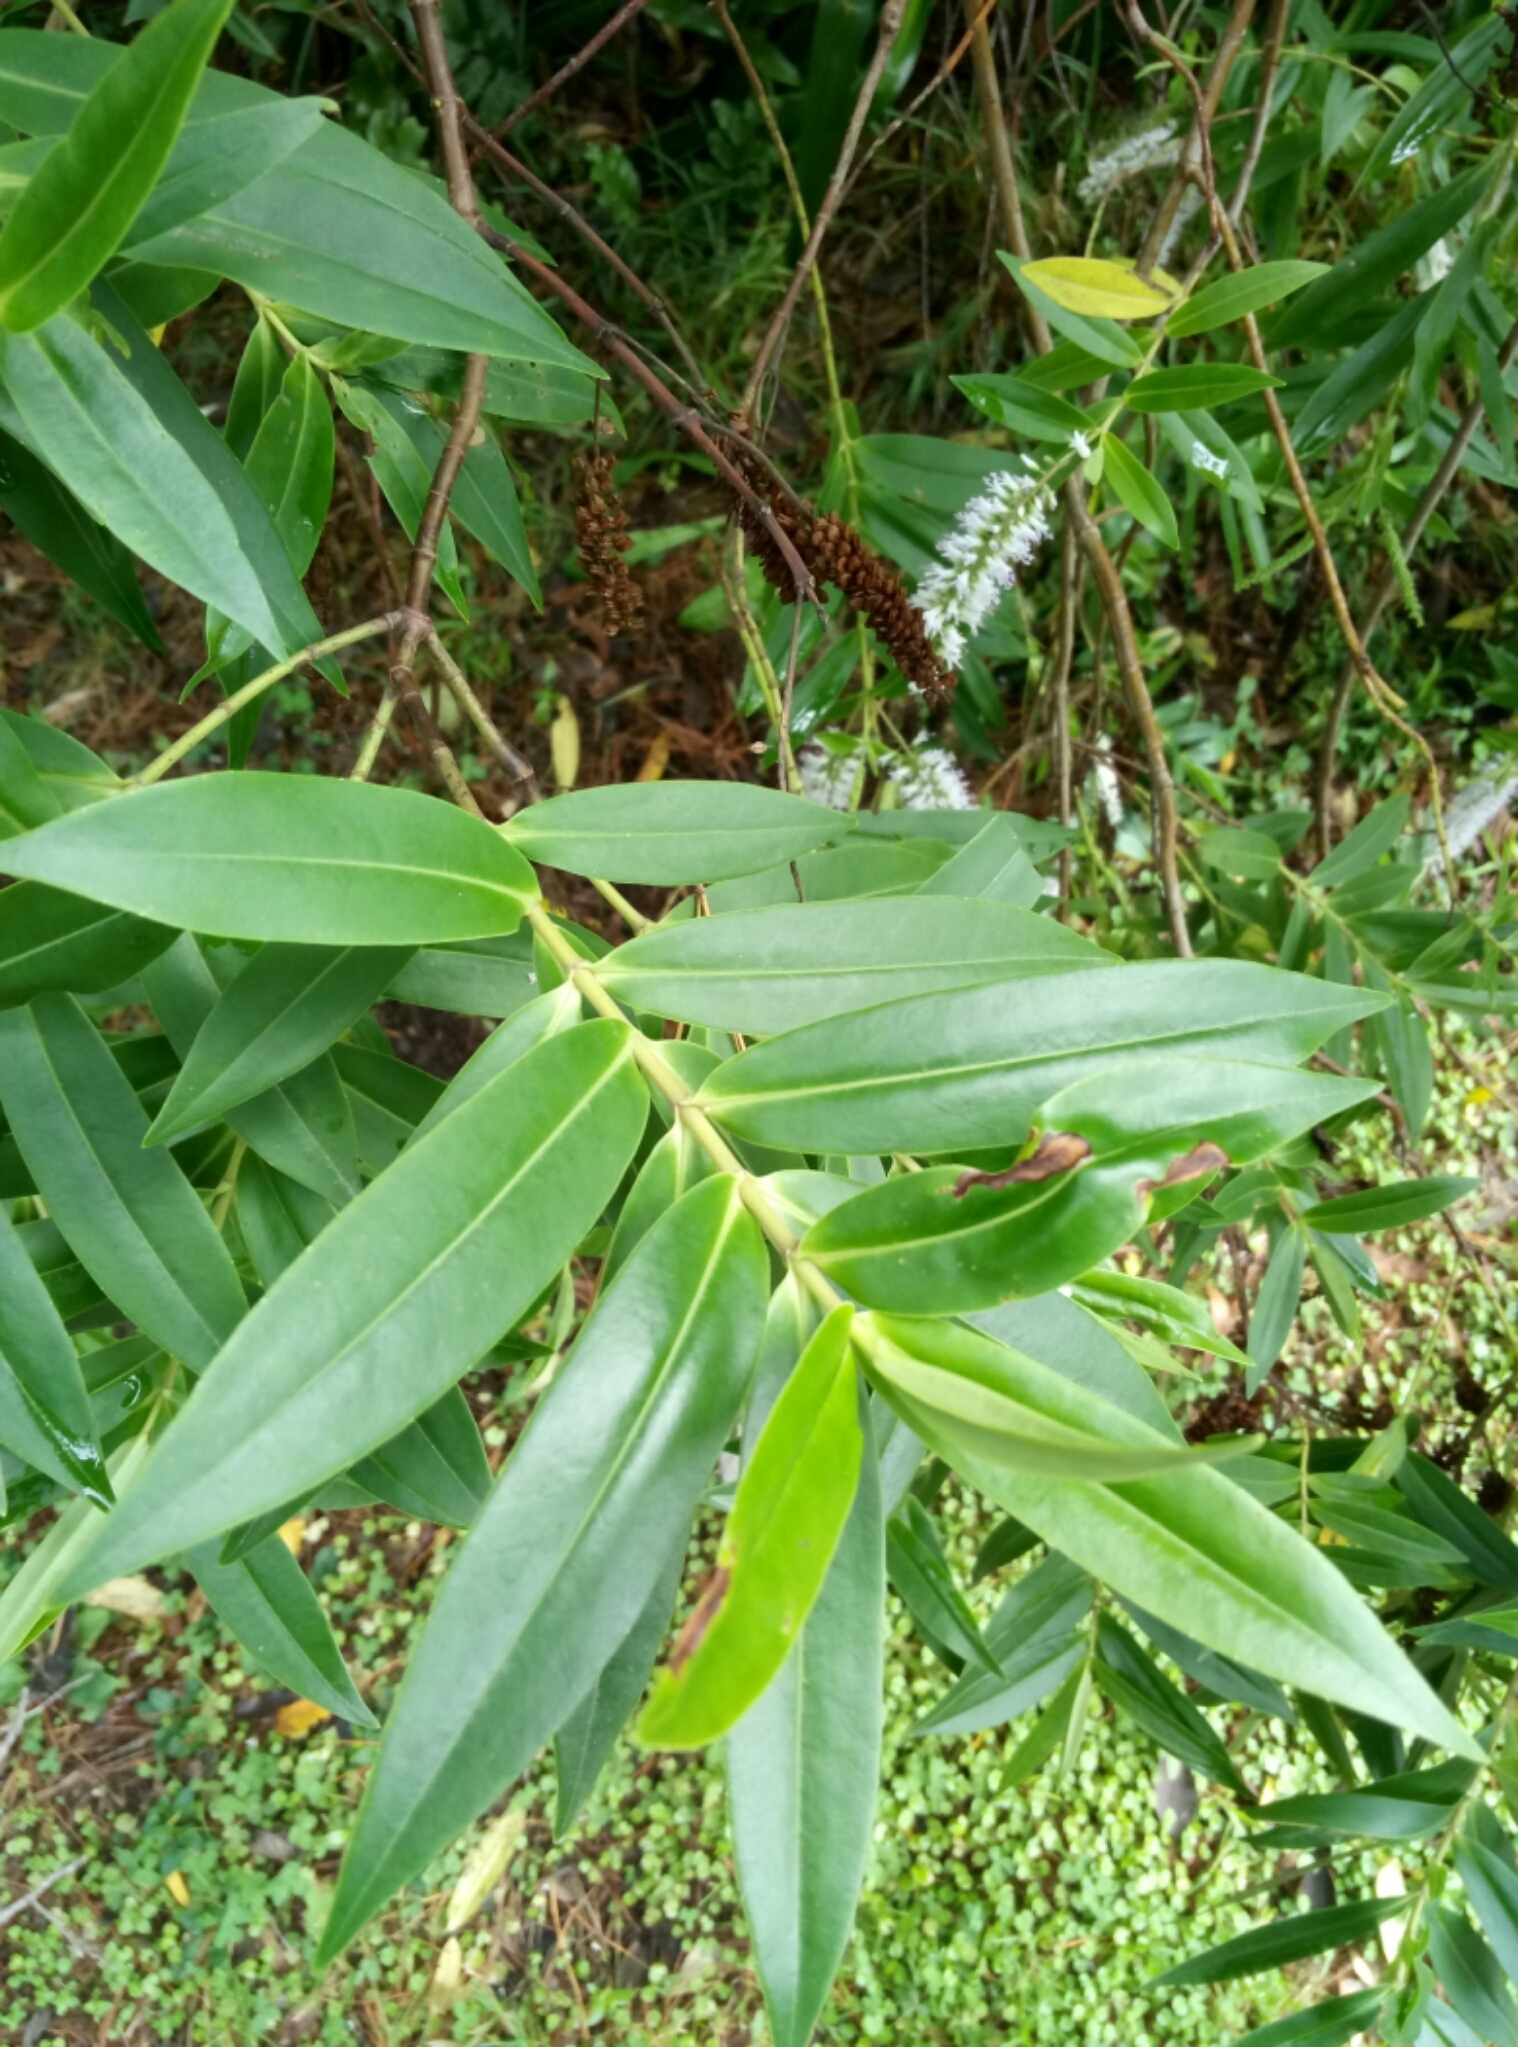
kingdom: Plantae
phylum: Tracheophyta
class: Magnoliopsida
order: Lamiales
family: Plantaginaceae
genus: Veronica
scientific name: Veronica stricta
